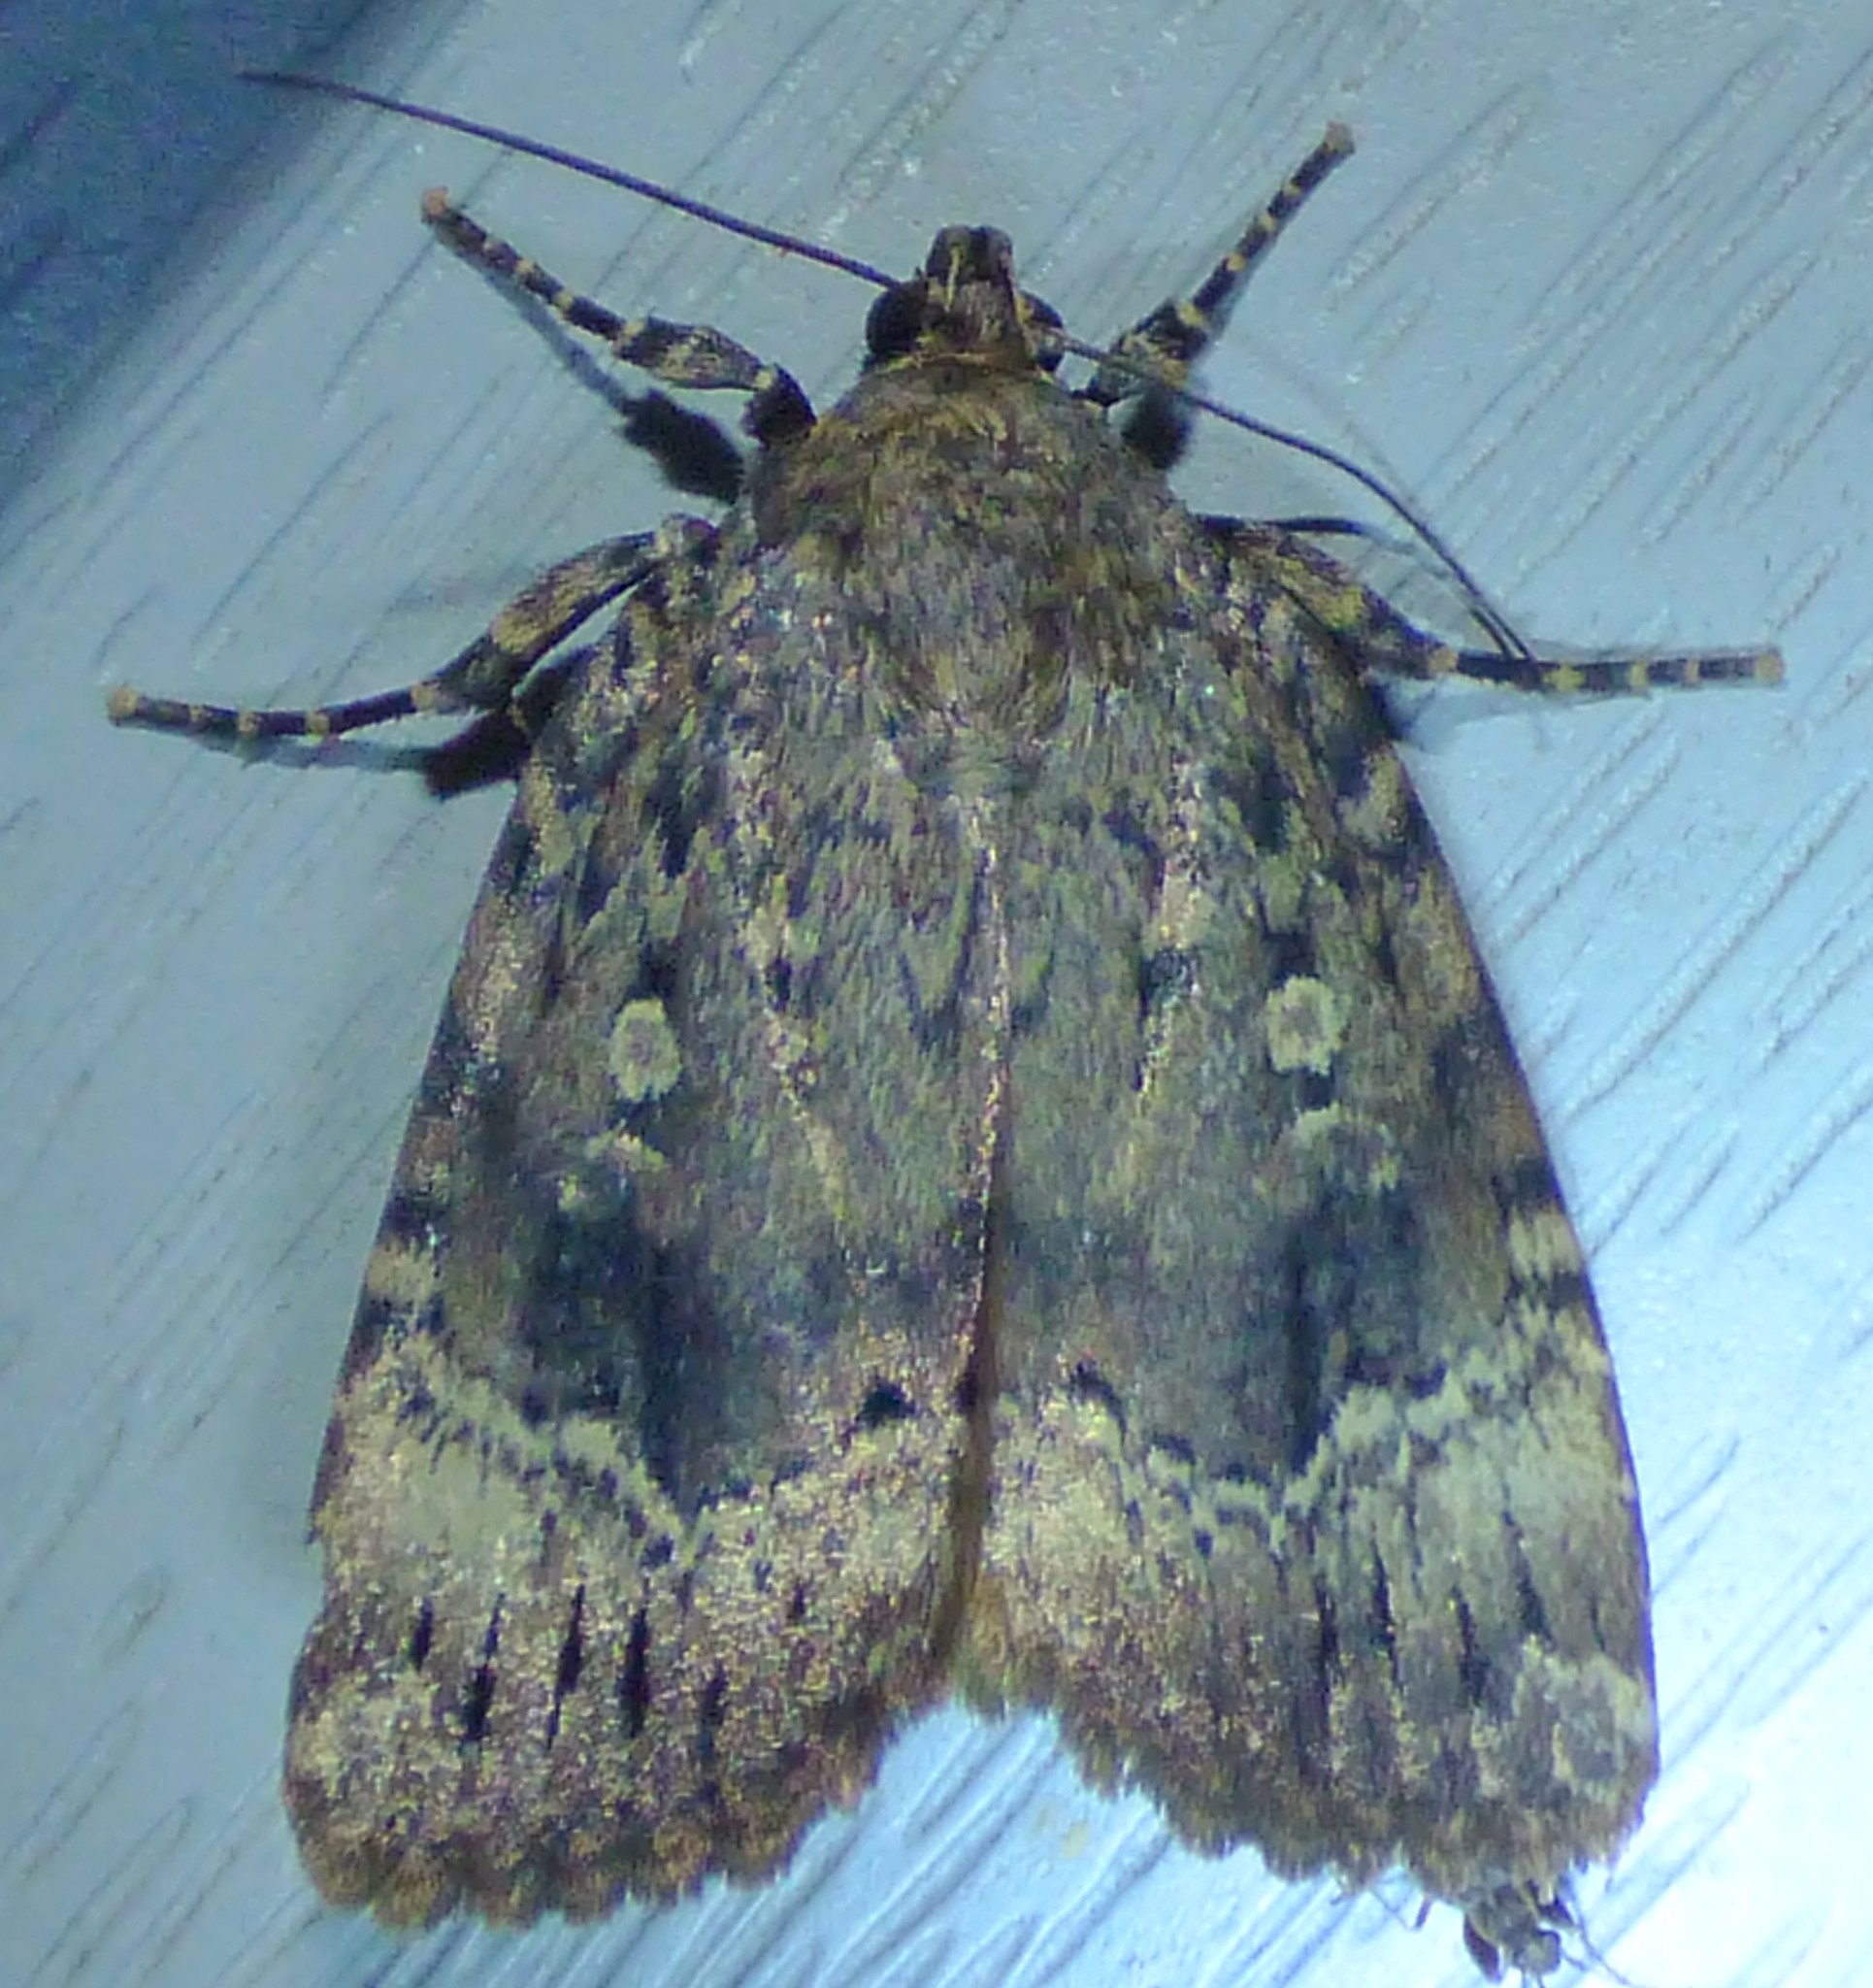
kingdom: Animalia
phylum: Arthropoda
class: Insecta
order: Lepidoptera
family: Noctuidae
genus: Amphipyra
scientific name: Amphipyra pyramidoides
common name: American copper underwing
